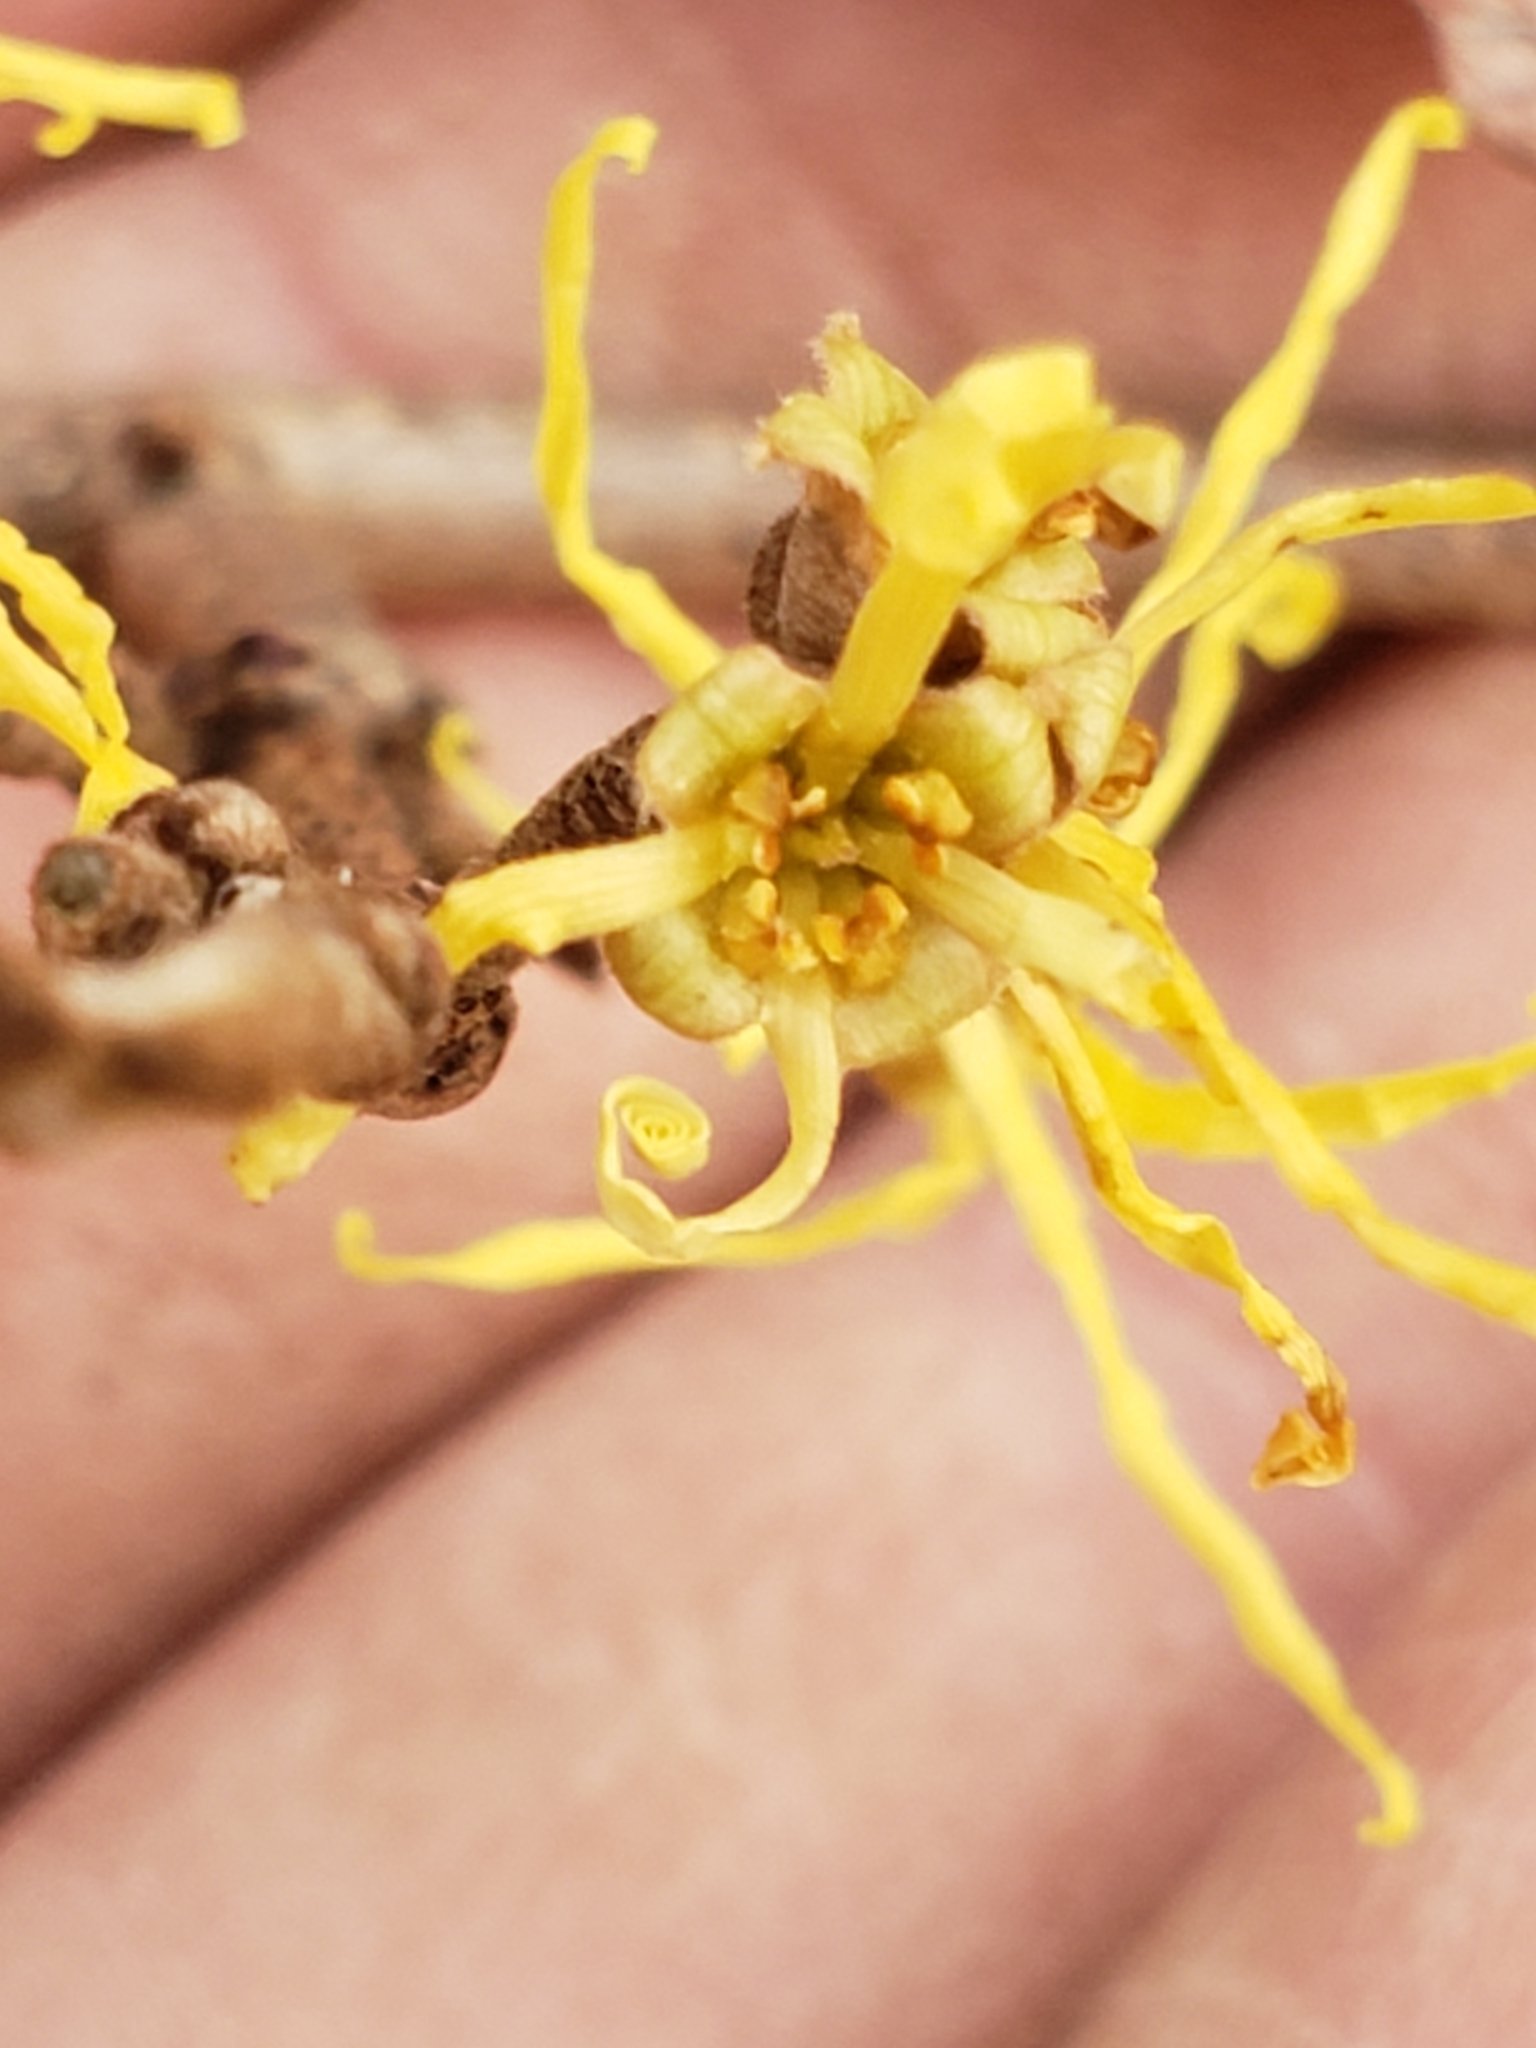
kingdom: Plantae
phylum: Tracheophyta
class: Magnoliopsida
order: Saxifragales
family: Hamamelidaceae
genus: Hamamelis
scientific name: Hamamelis virginiana
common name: Witch-hazel
